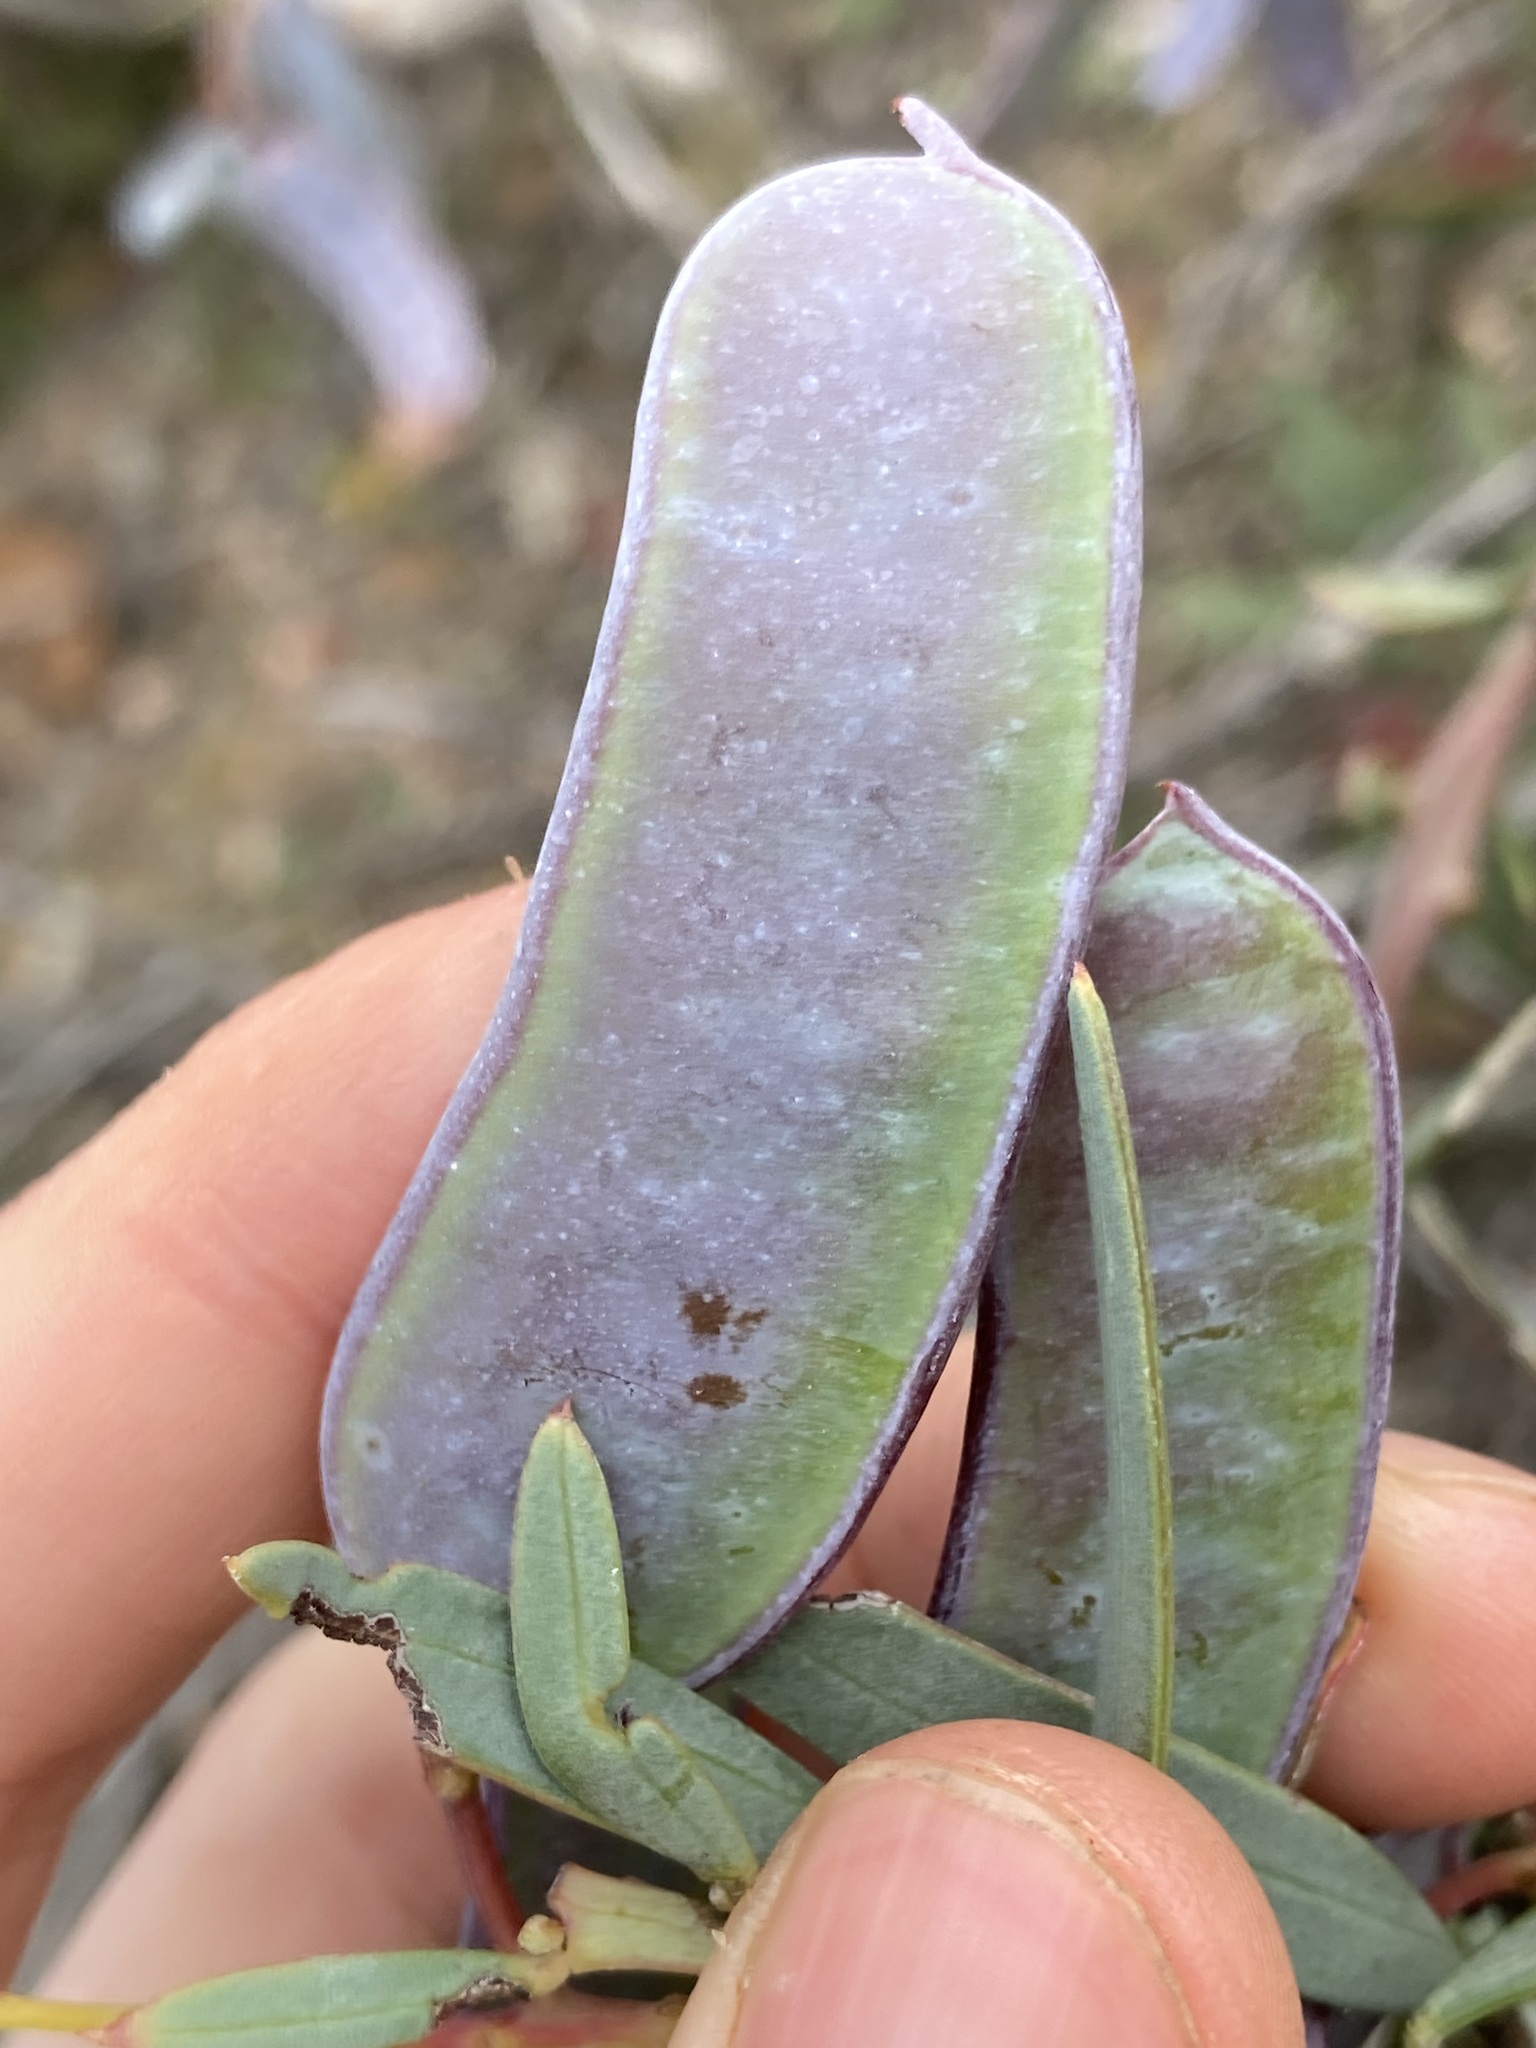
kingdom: Plantae
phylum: Tracheophyta
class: Magnoliopsida
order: Fabales
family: Fabaceae
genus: Acacia
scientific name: Acacia subcaerulea
